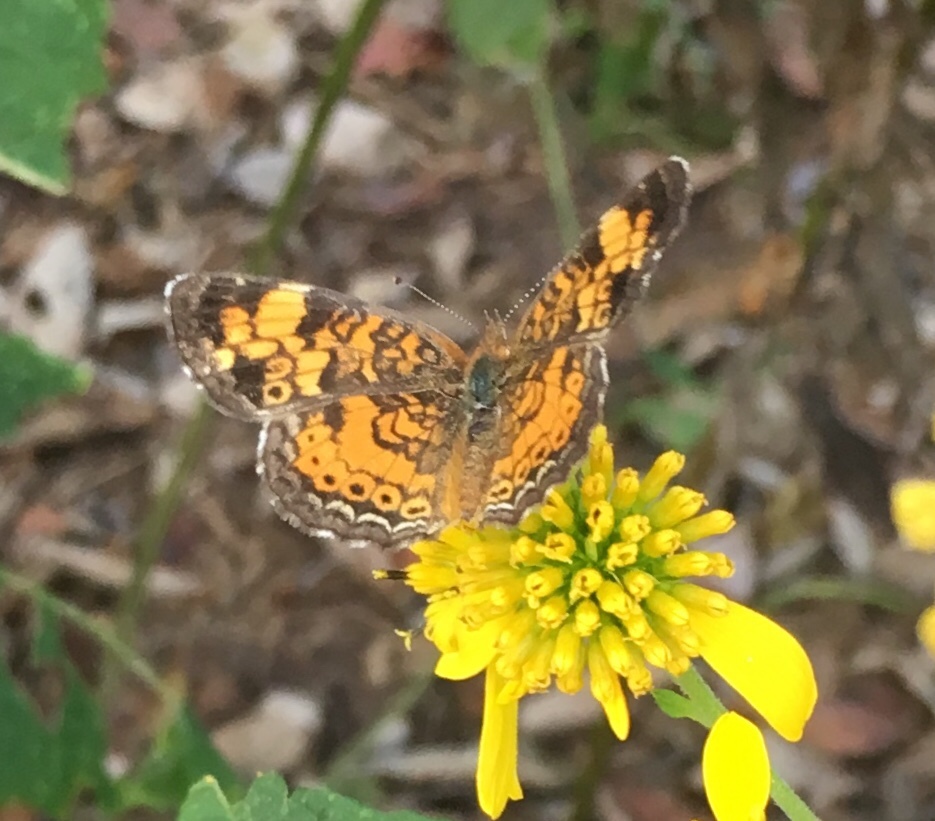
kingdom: Animalia
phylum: Arthropoda
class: Insecta
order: Lepidoptera
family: Nymphalidae
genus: Phyciodes
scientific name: Phyciodes tharos
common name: Pearl crescent
